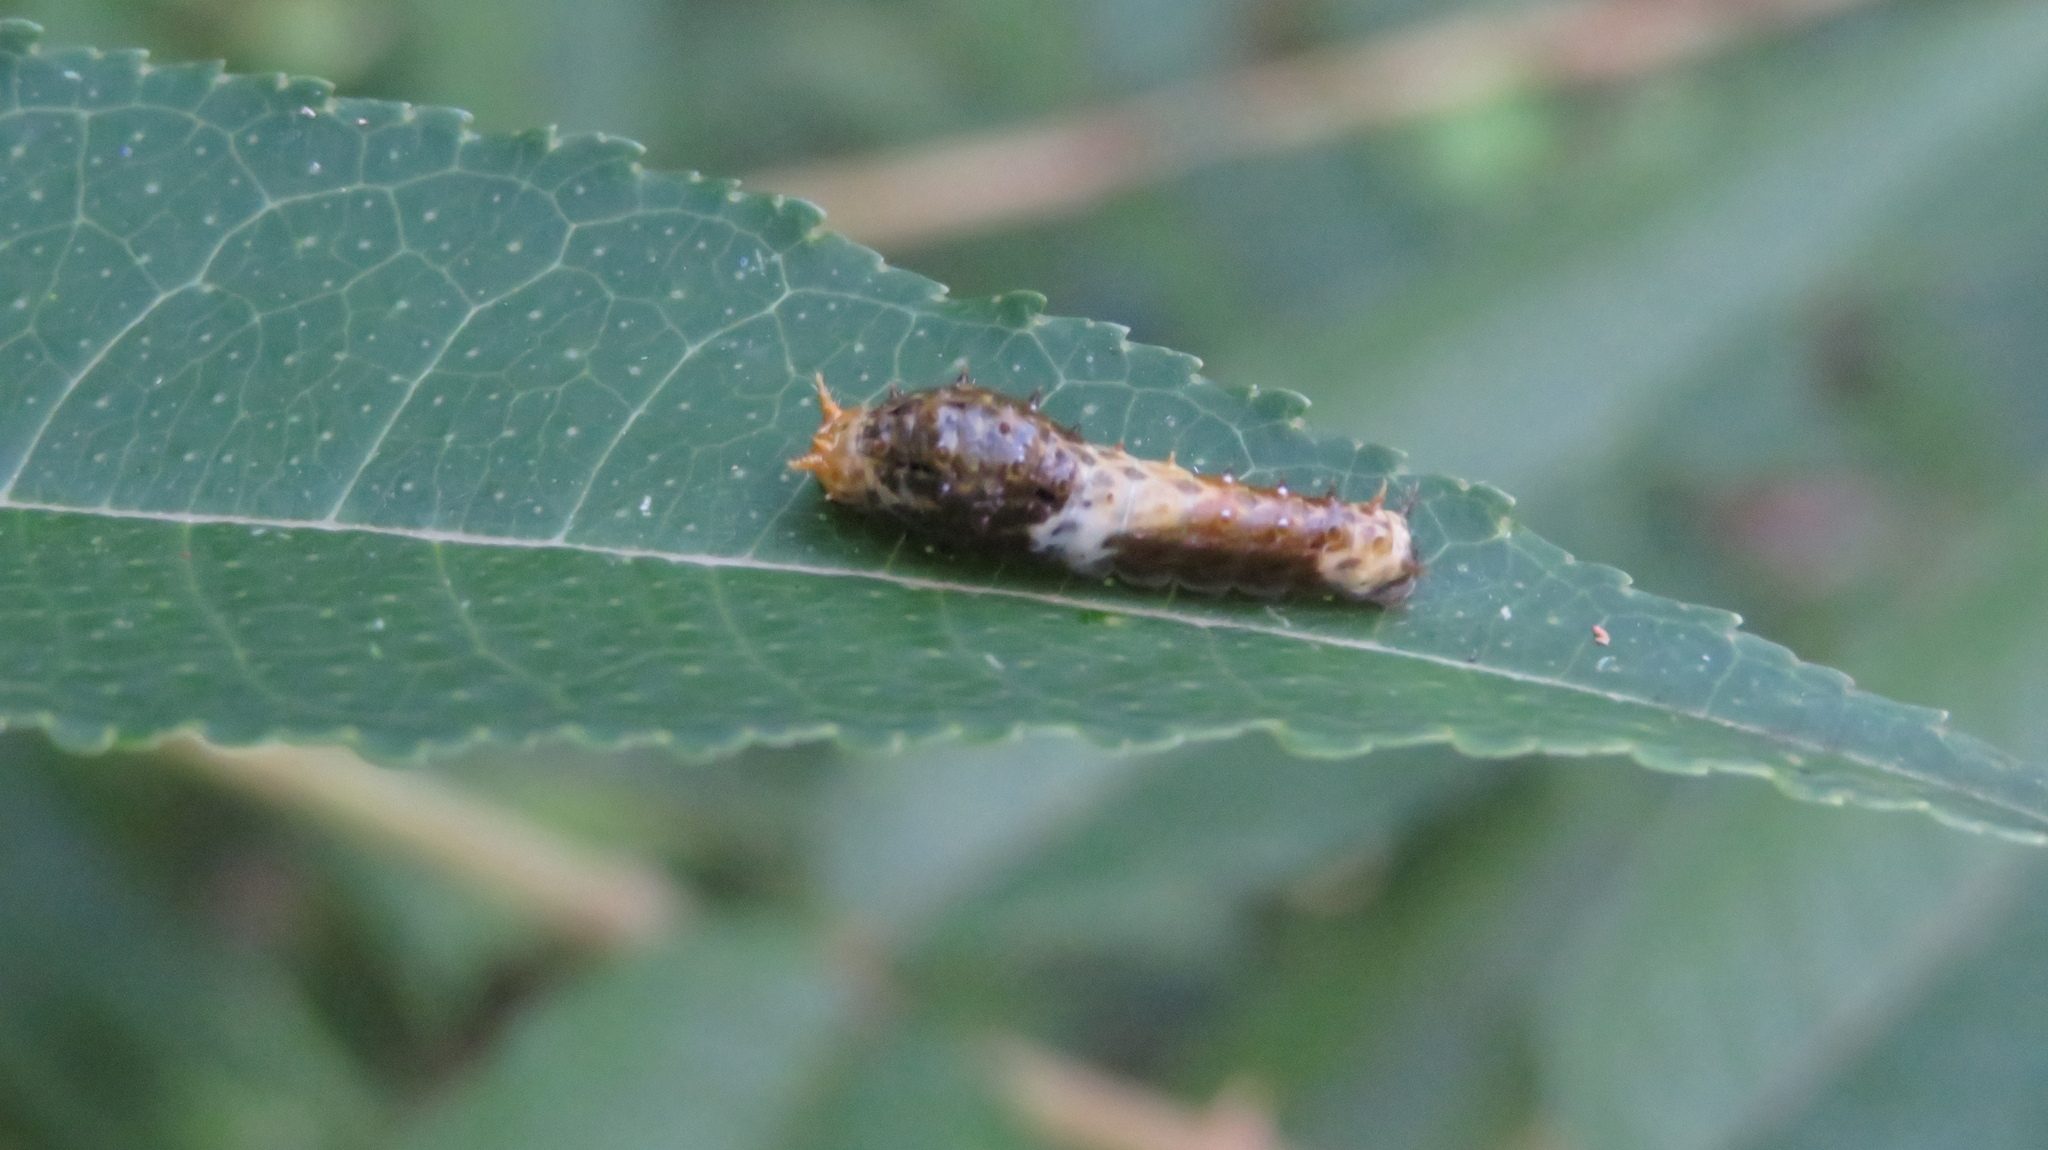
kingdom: Animalia
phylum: Arthropoda
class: Insecta
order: Lepidoptera
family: Papilionidae
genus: Papilio
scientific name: Papilio demetrius
